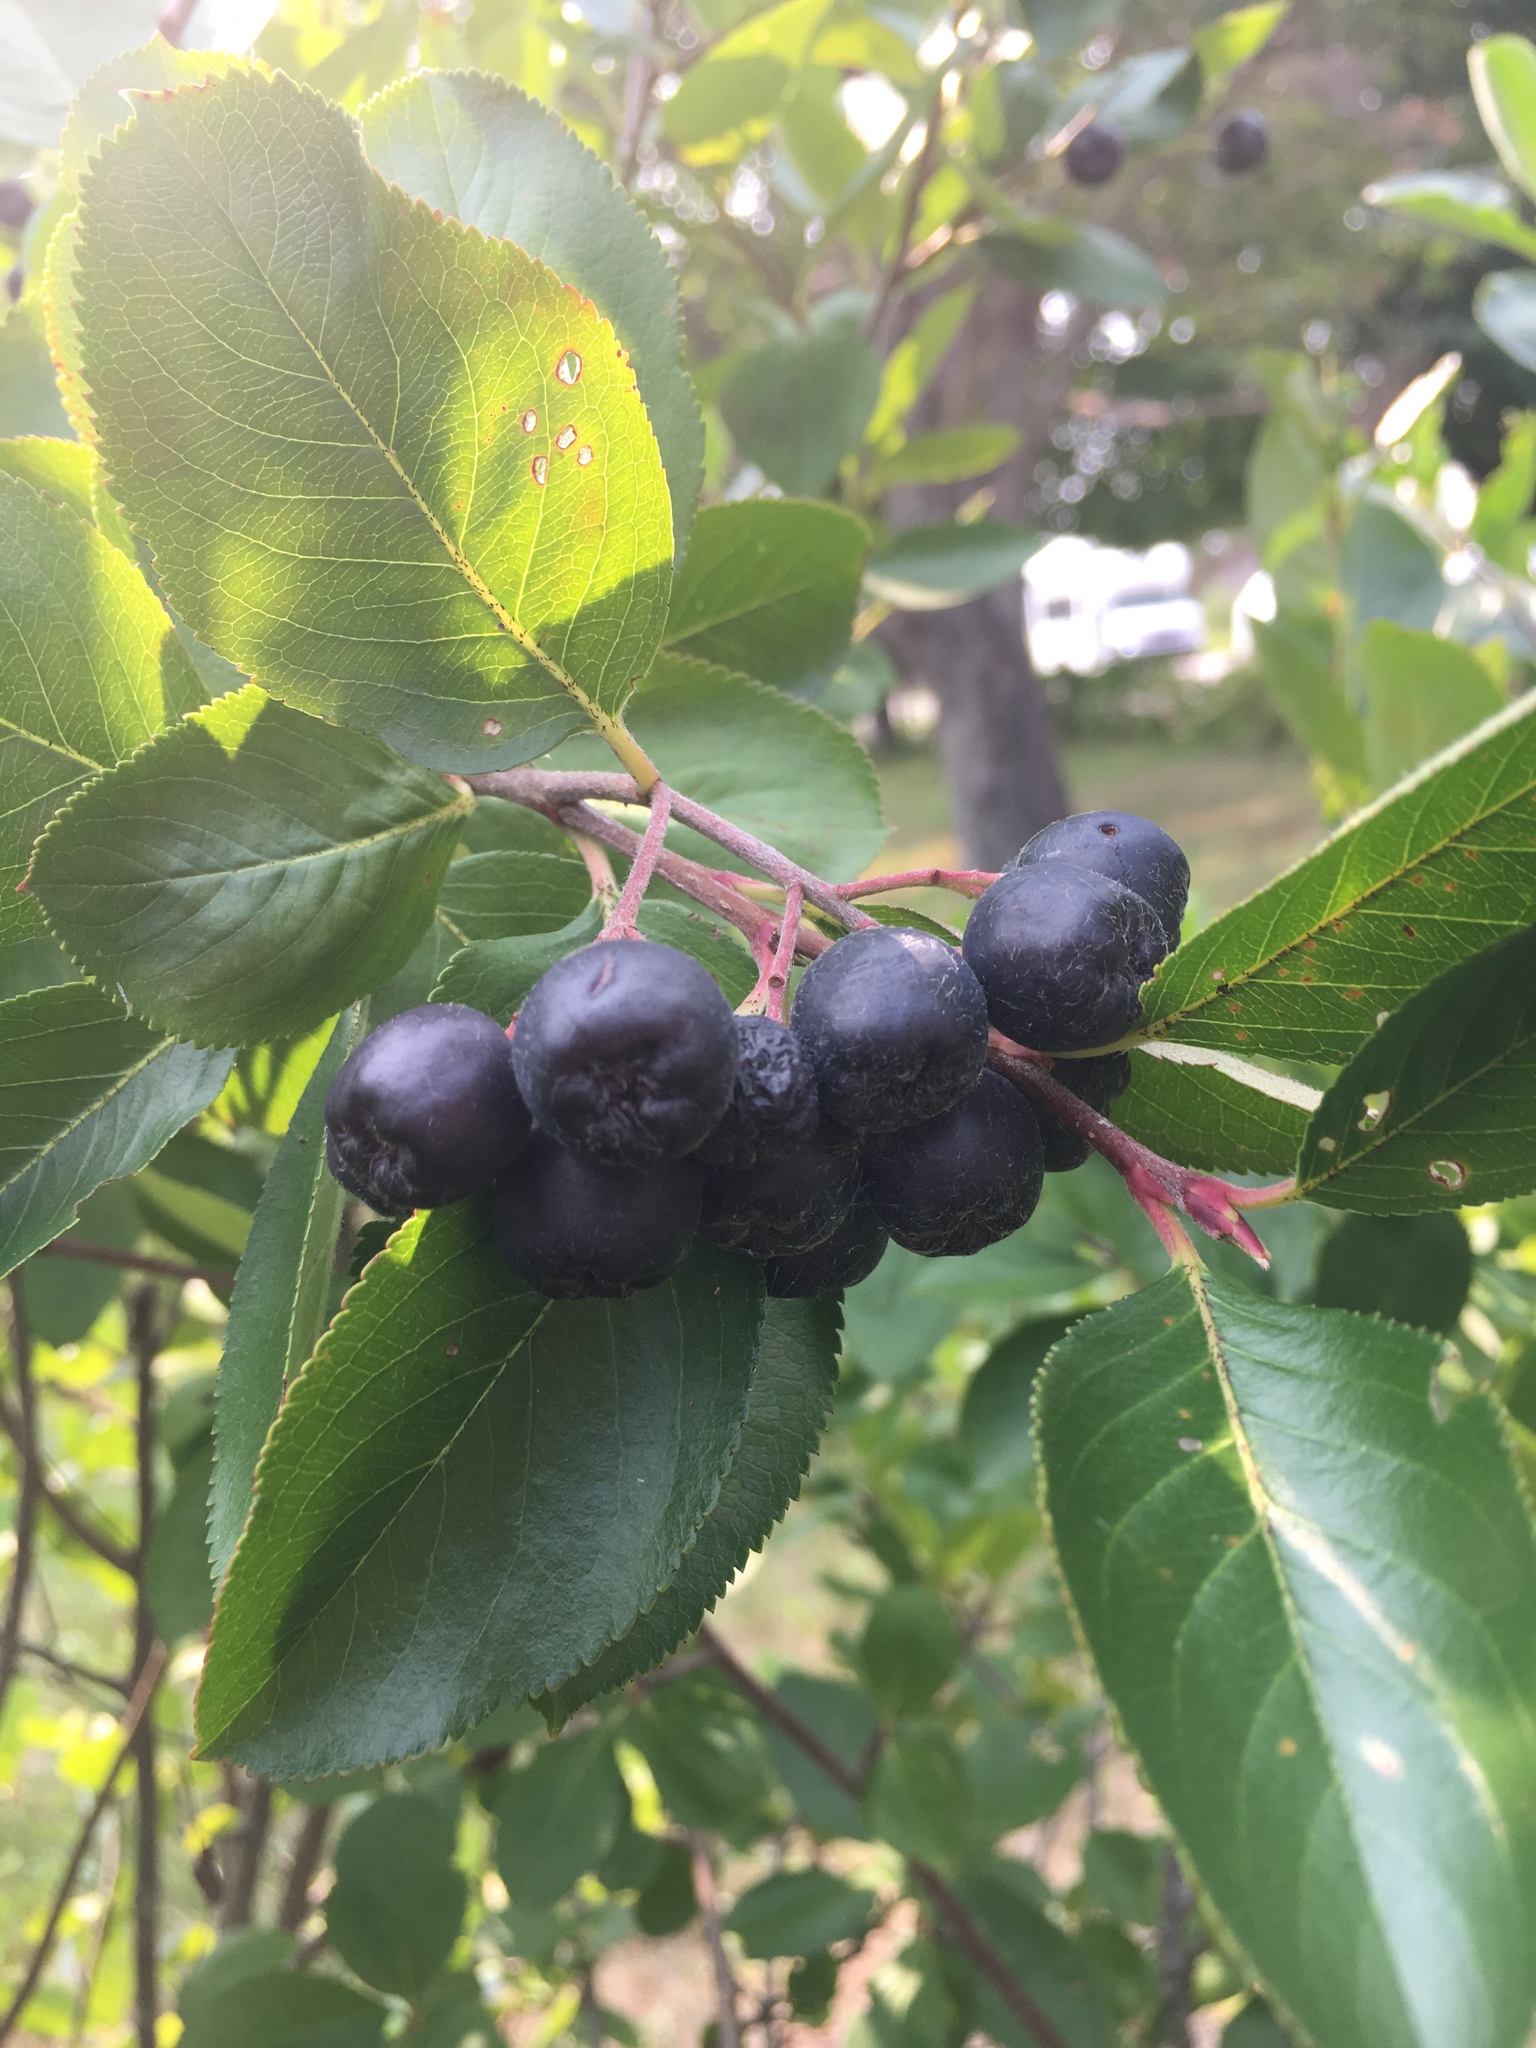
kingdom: Plantae
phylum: Tracheophyta
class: Magnoliopsida
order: Rosales
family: Rosaceae
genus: Aronia
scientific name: Aronia prunifolia
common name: Purple chokeberry
